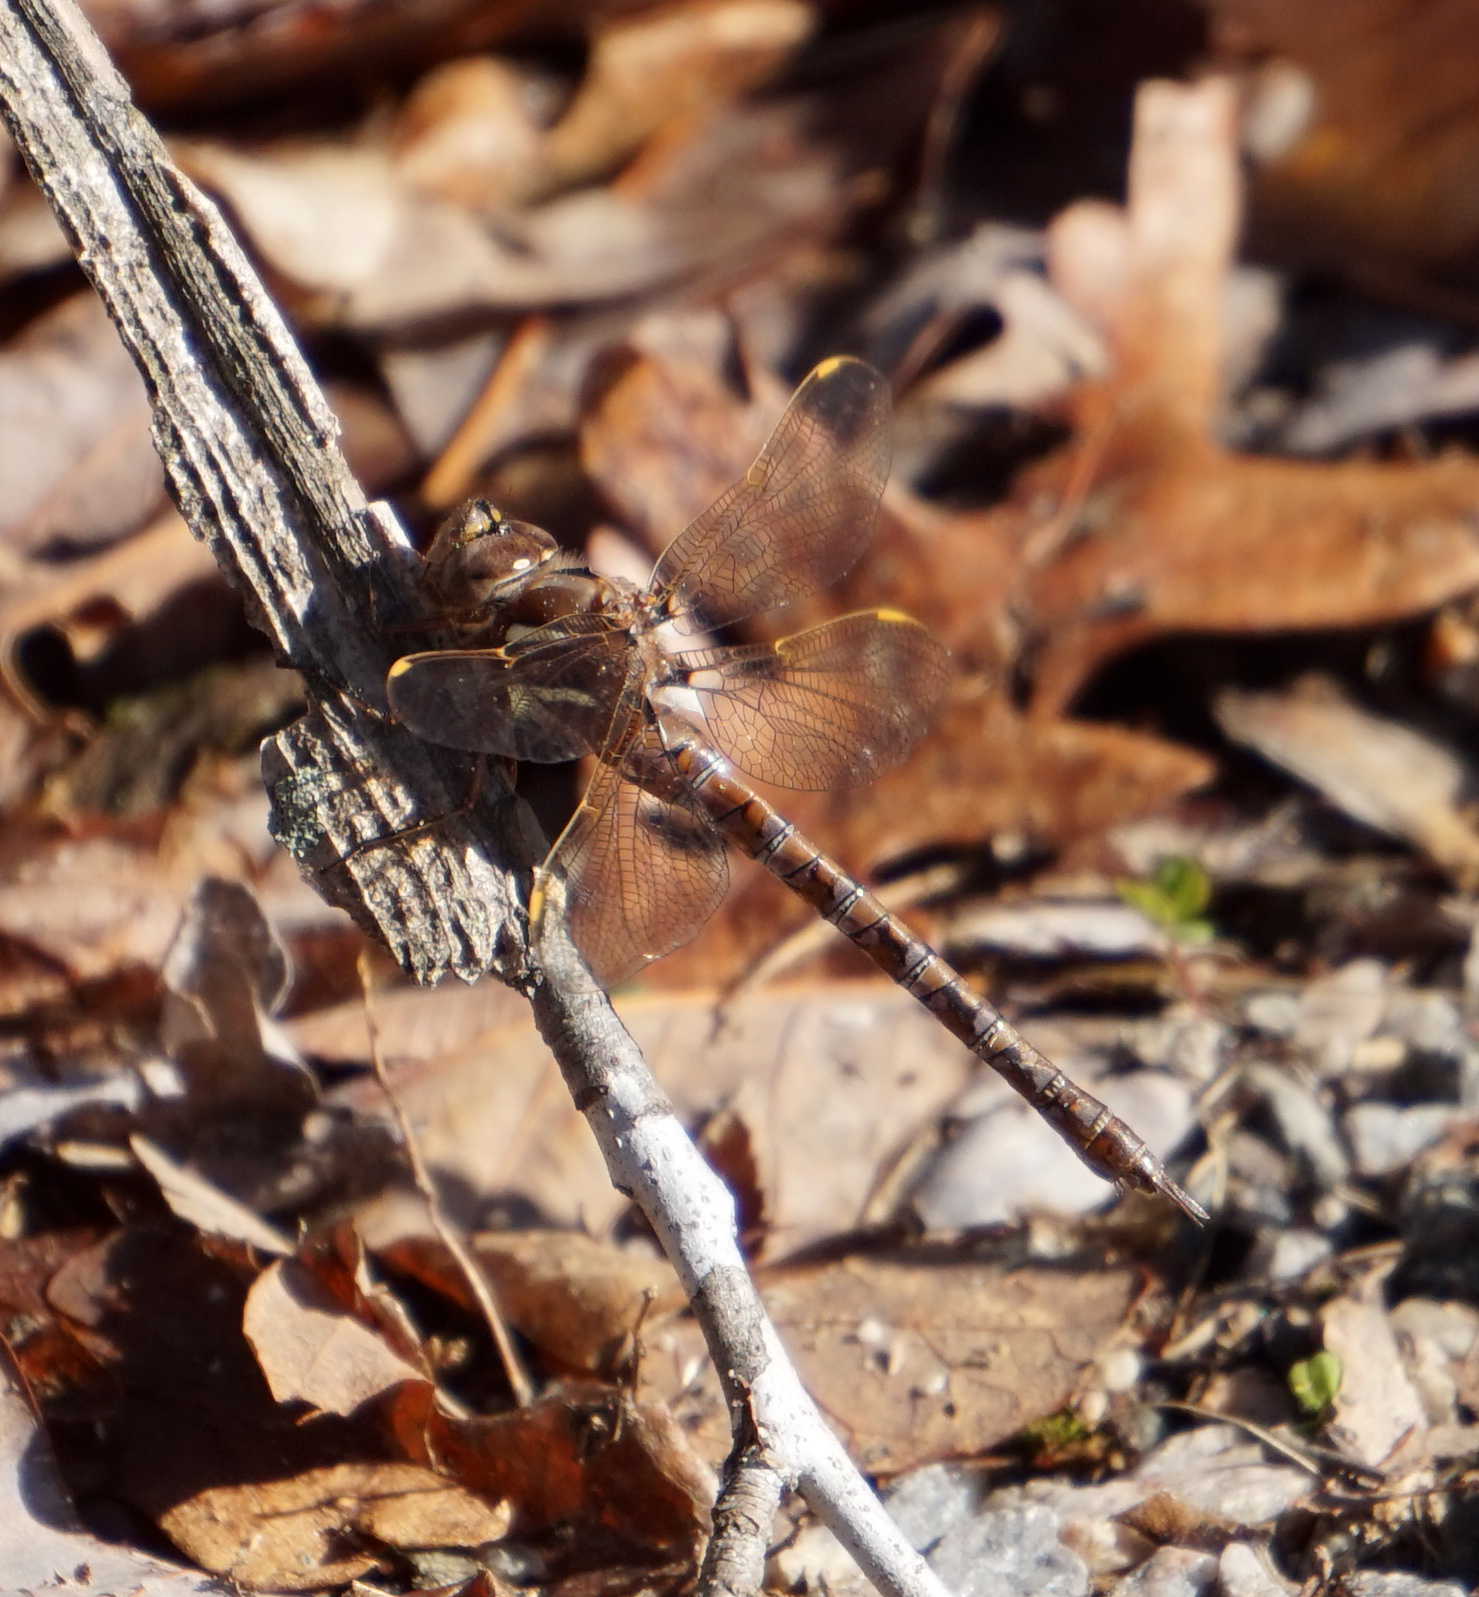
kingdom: Animalia
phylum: Arthropoda
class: Insecta
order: Odonata
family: Aeshnidae
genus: Basiaeschna
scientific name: Basiaeschna janata
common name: Springtime darner
